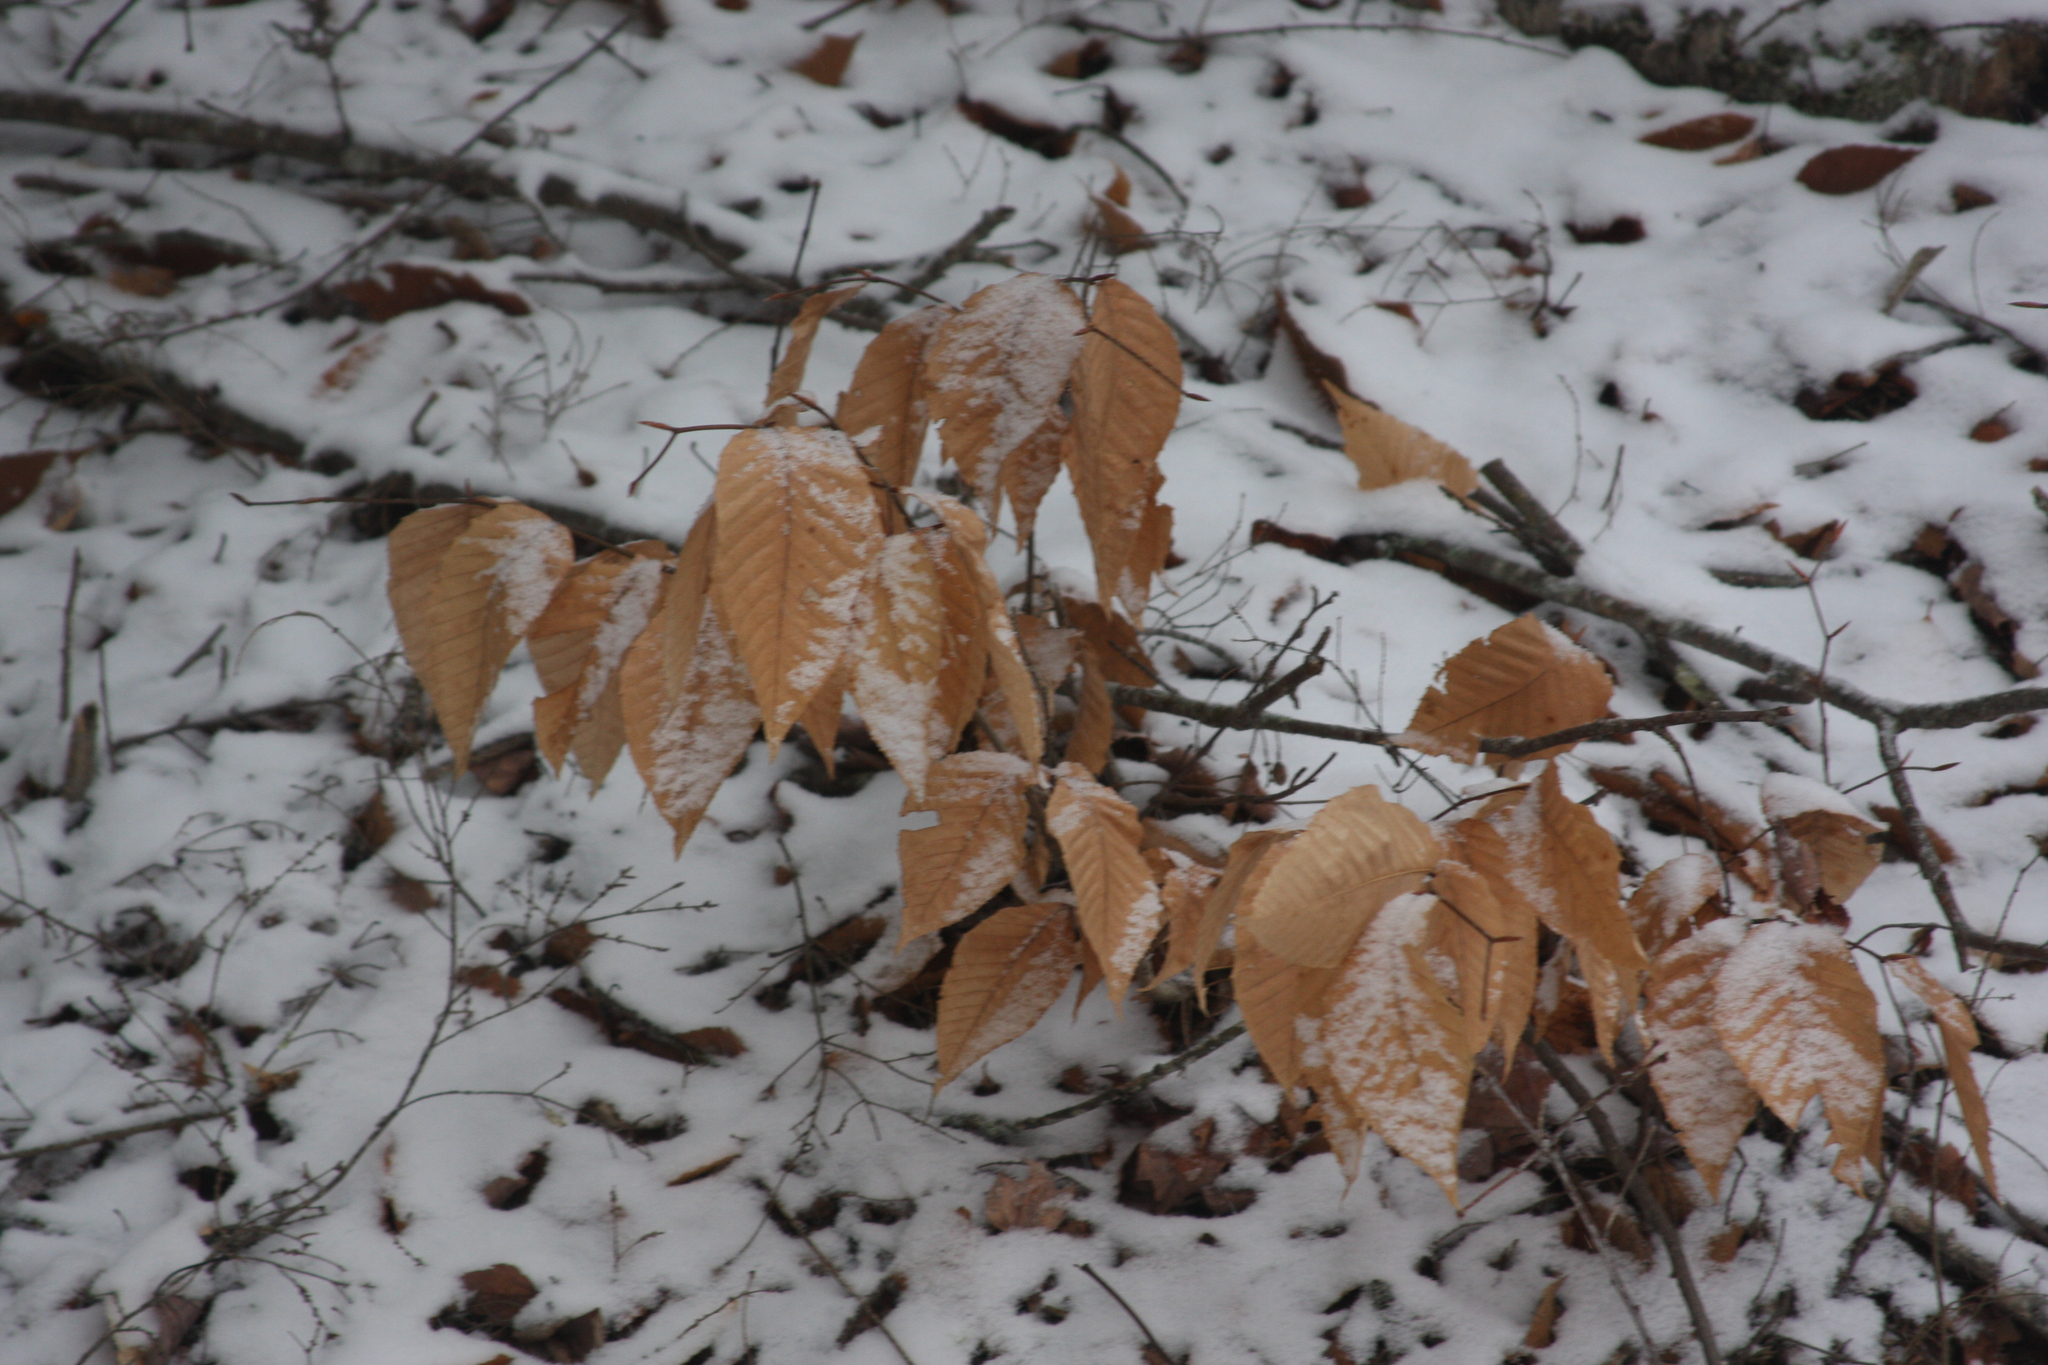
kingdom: Plantae
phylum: Tracheophyta
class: Magnoliopsida
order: Fagales
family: Fagaceae
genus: Fagus
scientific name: Fagus grandifolia
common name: American beech
